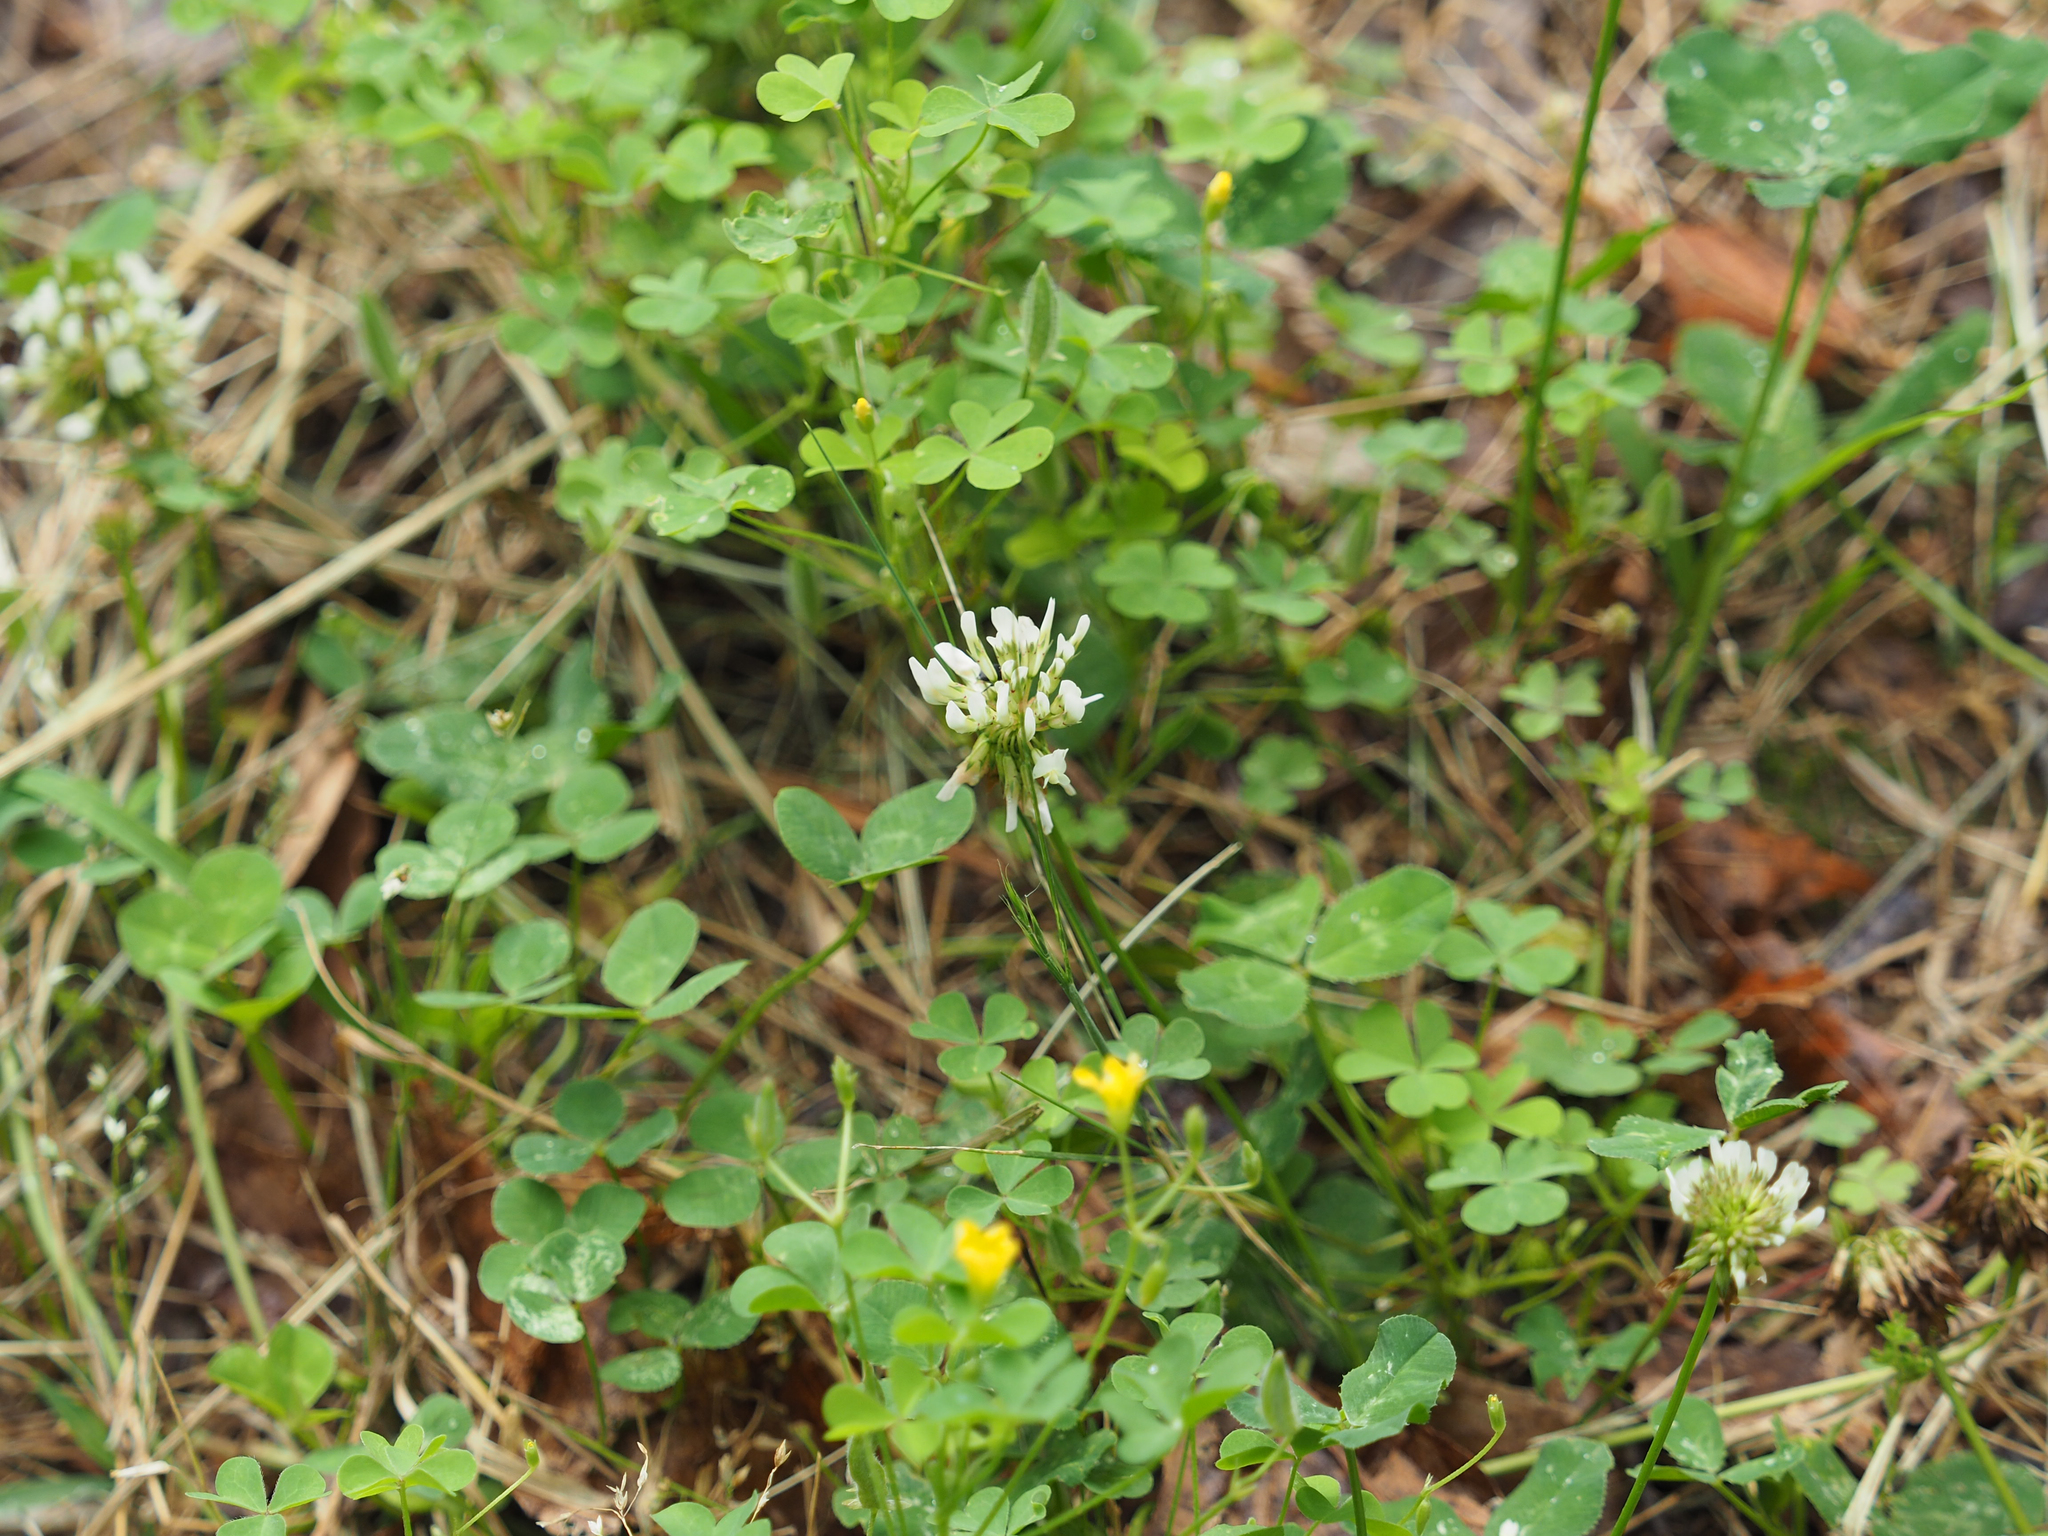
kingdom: Plantae
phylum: Tracheophyta
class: Magnoliopsida
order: Fabales
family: Fabaceae
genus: Trifolium
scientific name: Trifolium repens
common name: White clover
